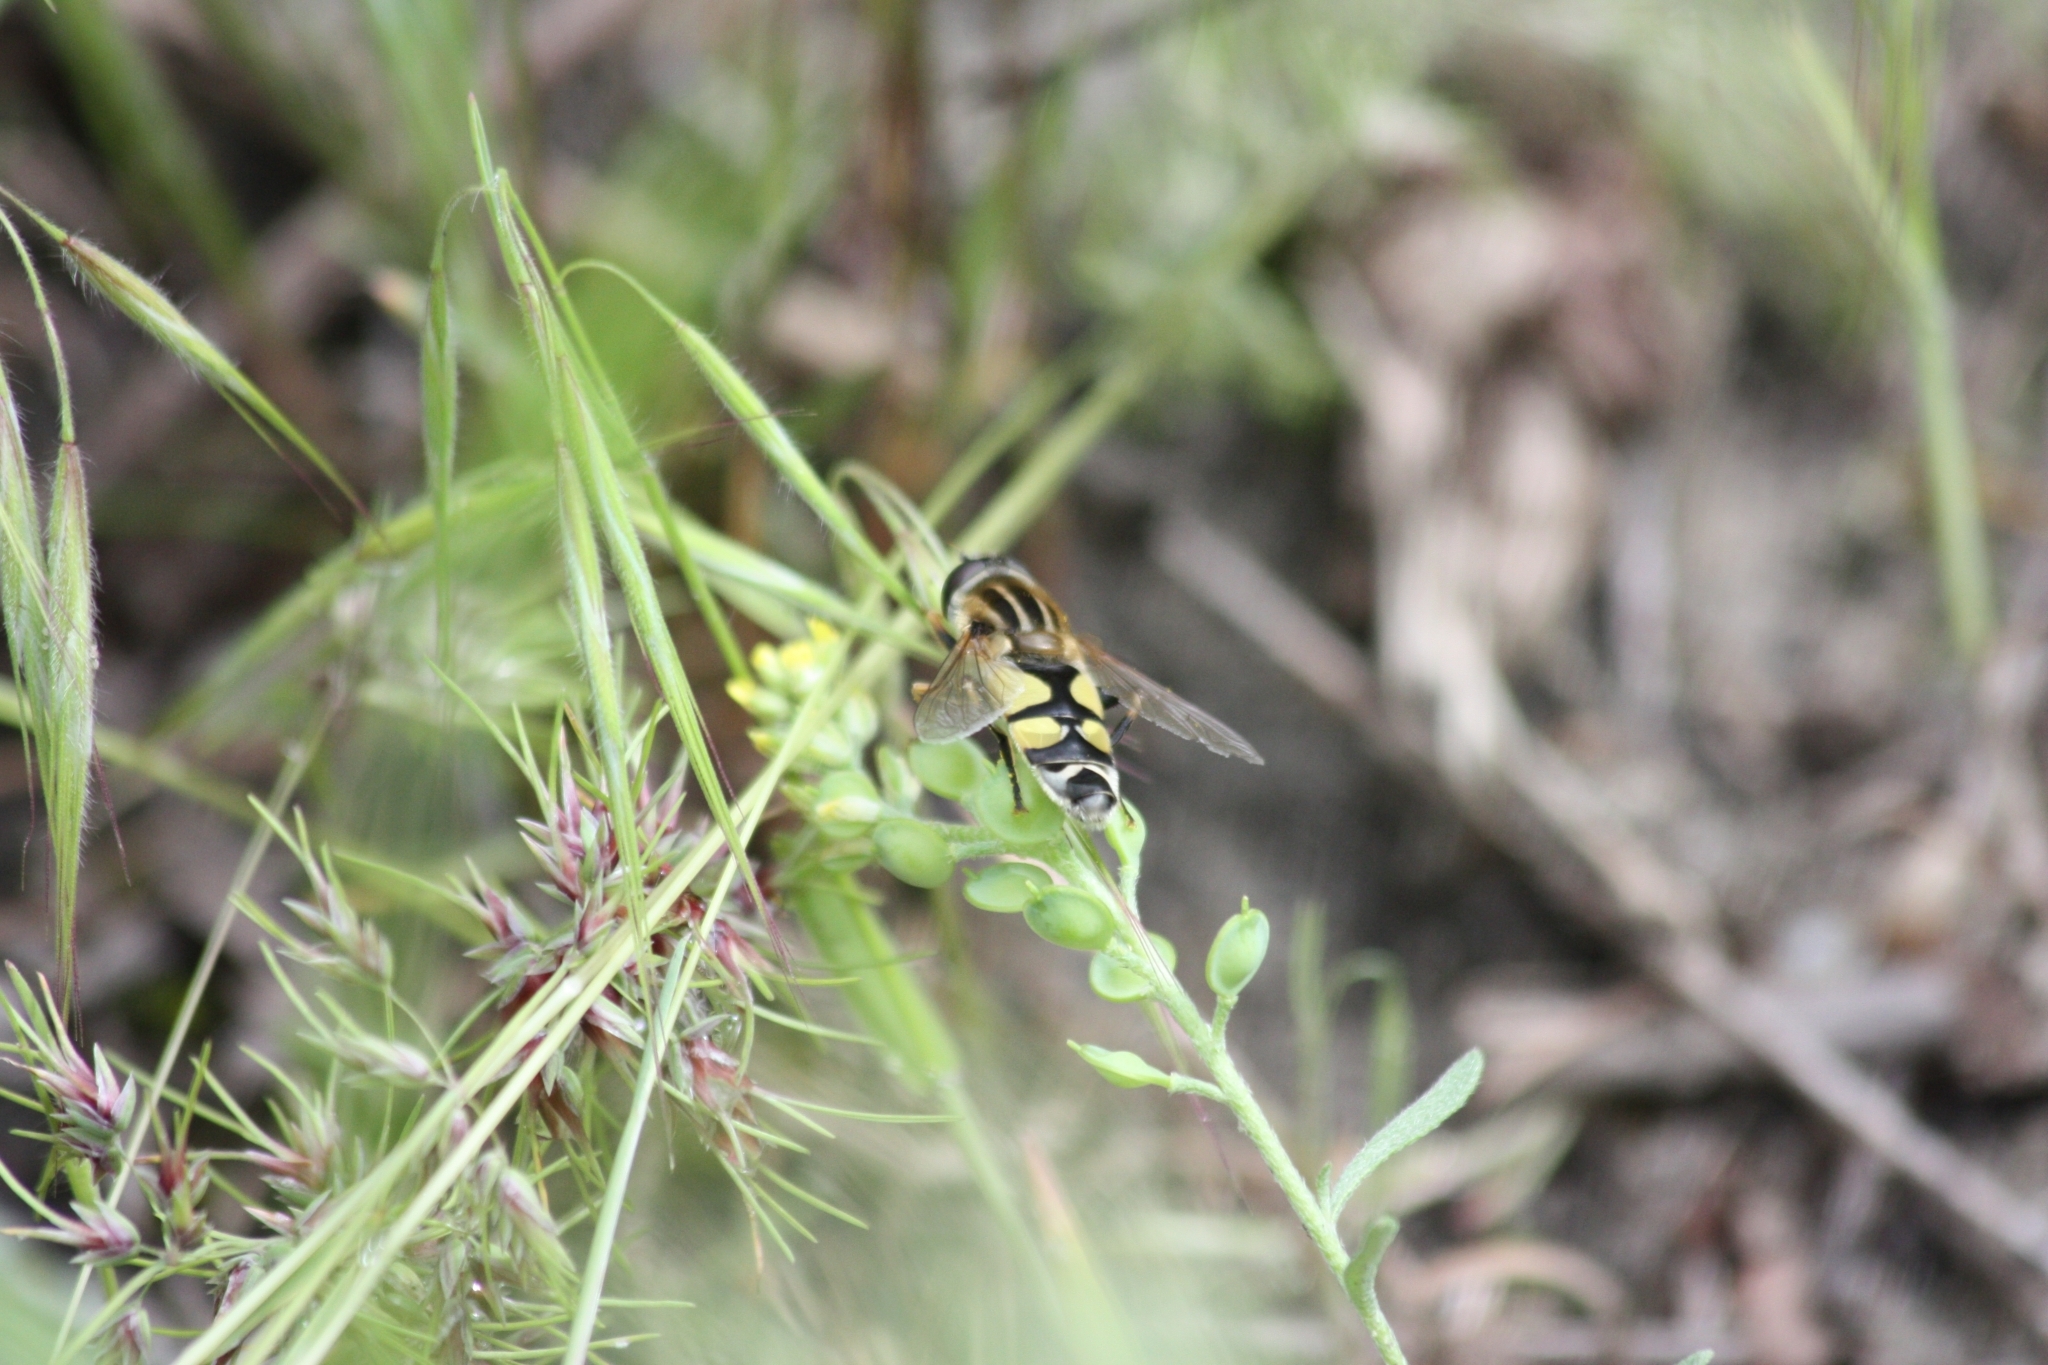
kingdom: Animalia
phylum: Arthropoda
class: Insecta
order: Diptera
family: Syrphidae
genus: Helophilus
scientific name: Helophilus trivittatus
